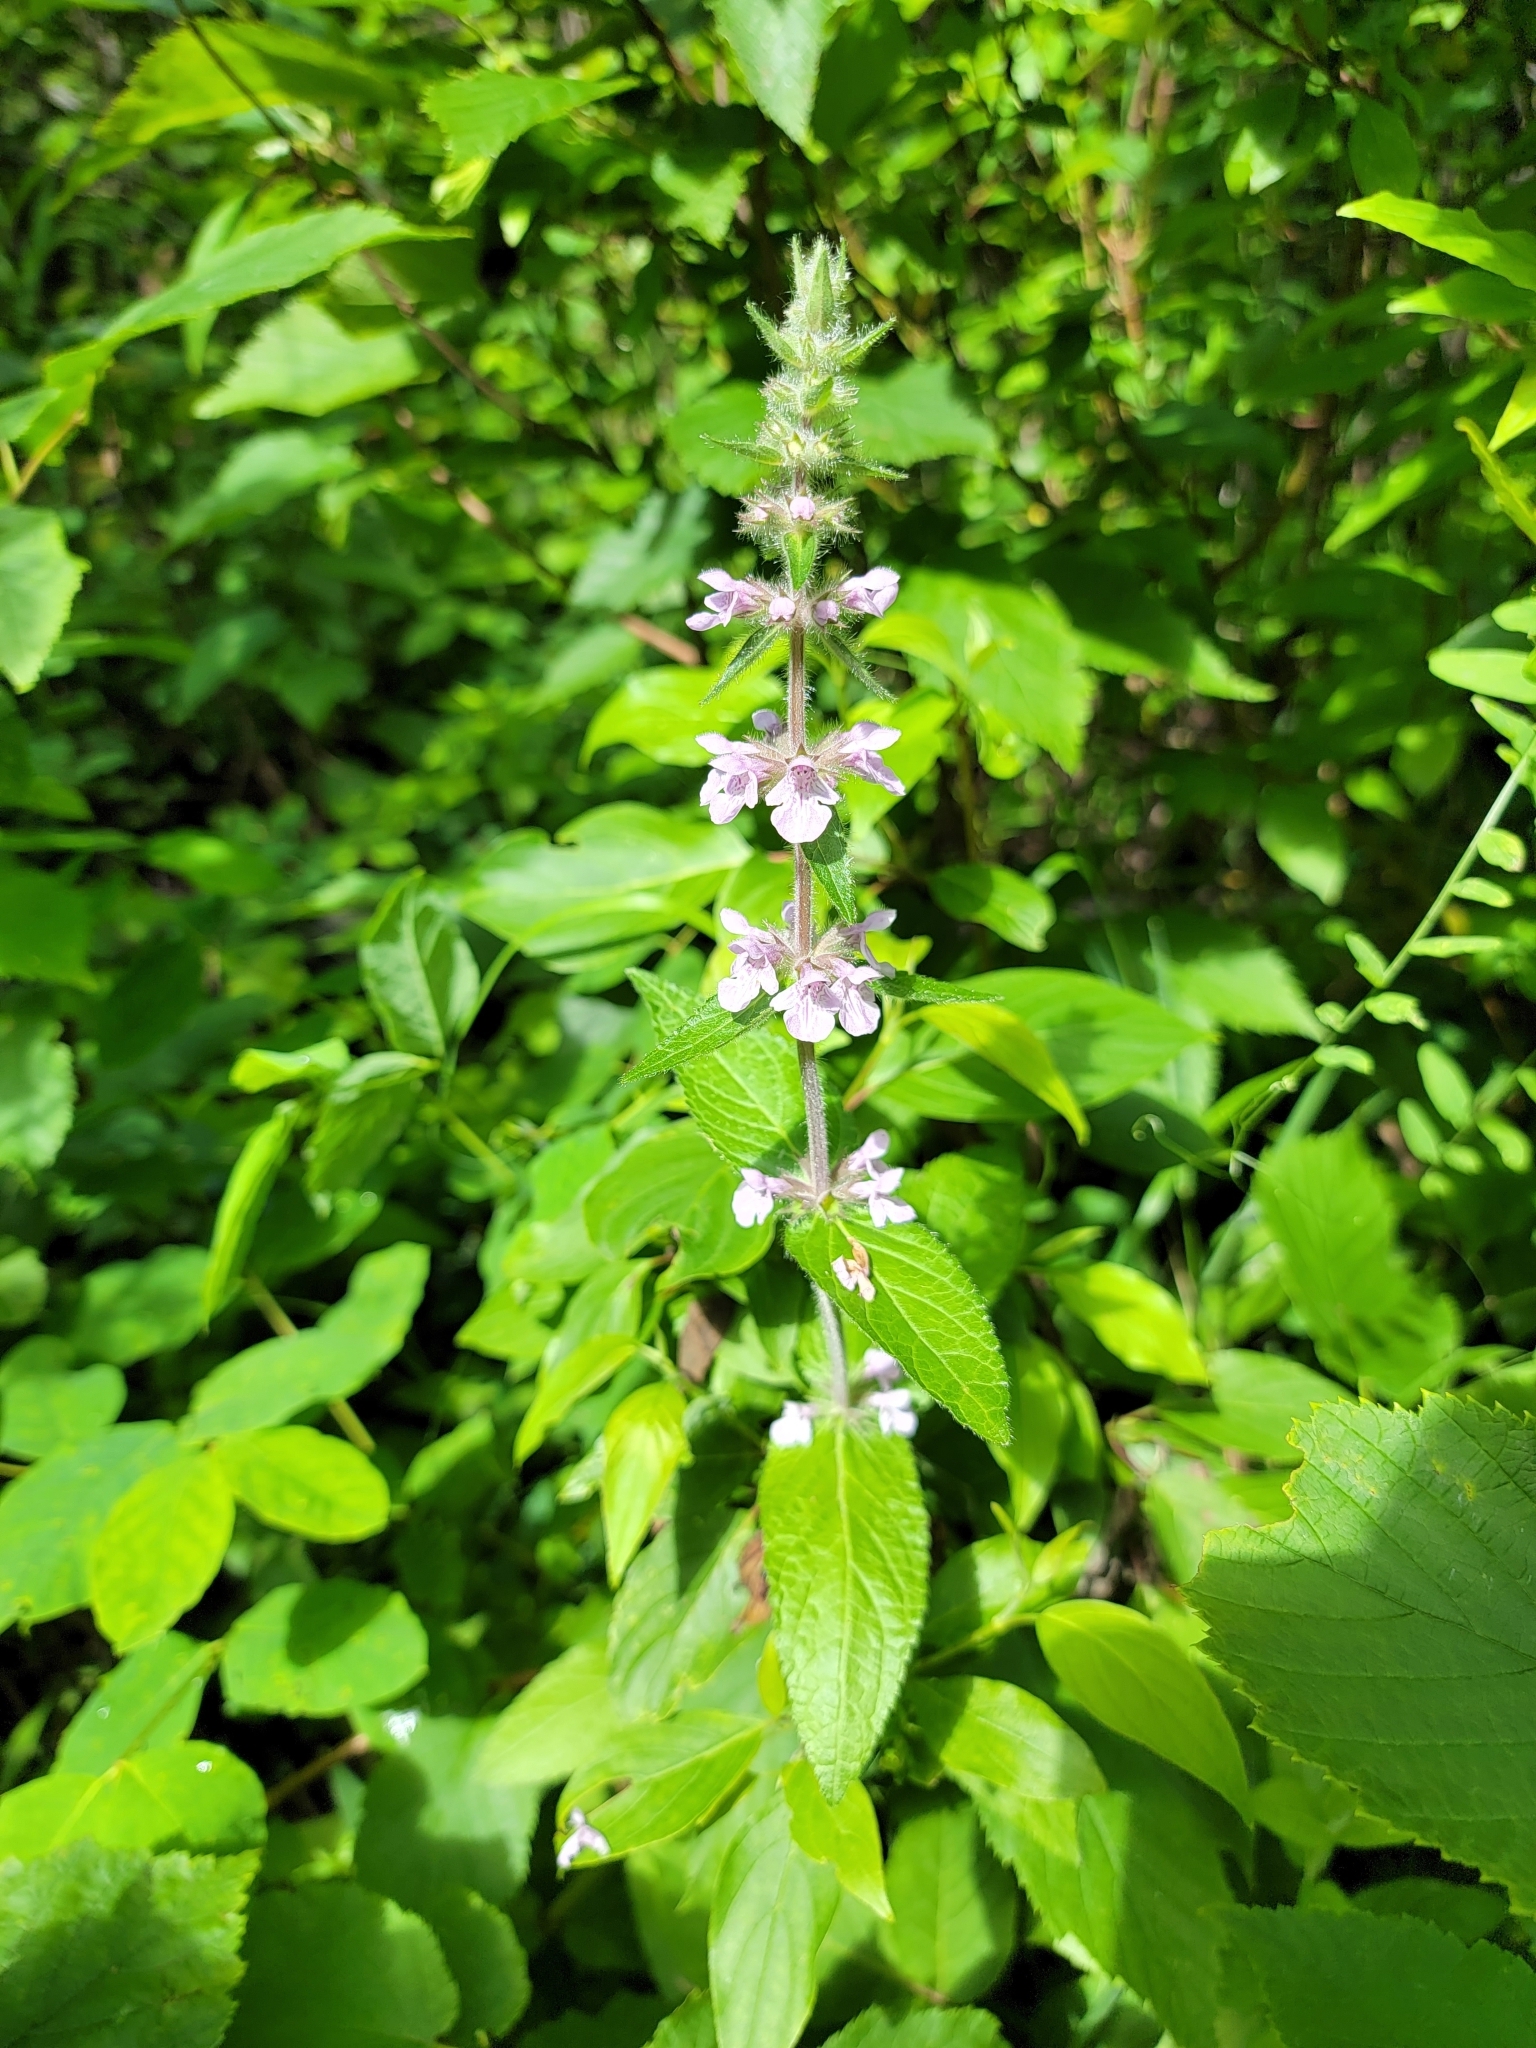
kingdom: Plantae
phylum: Tracheophyta
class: Magnoliopsida
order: Lamiales
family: Lamiaceae
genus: Stachys
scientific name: Stachys pilosa
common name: Hairy hedge-nettle
